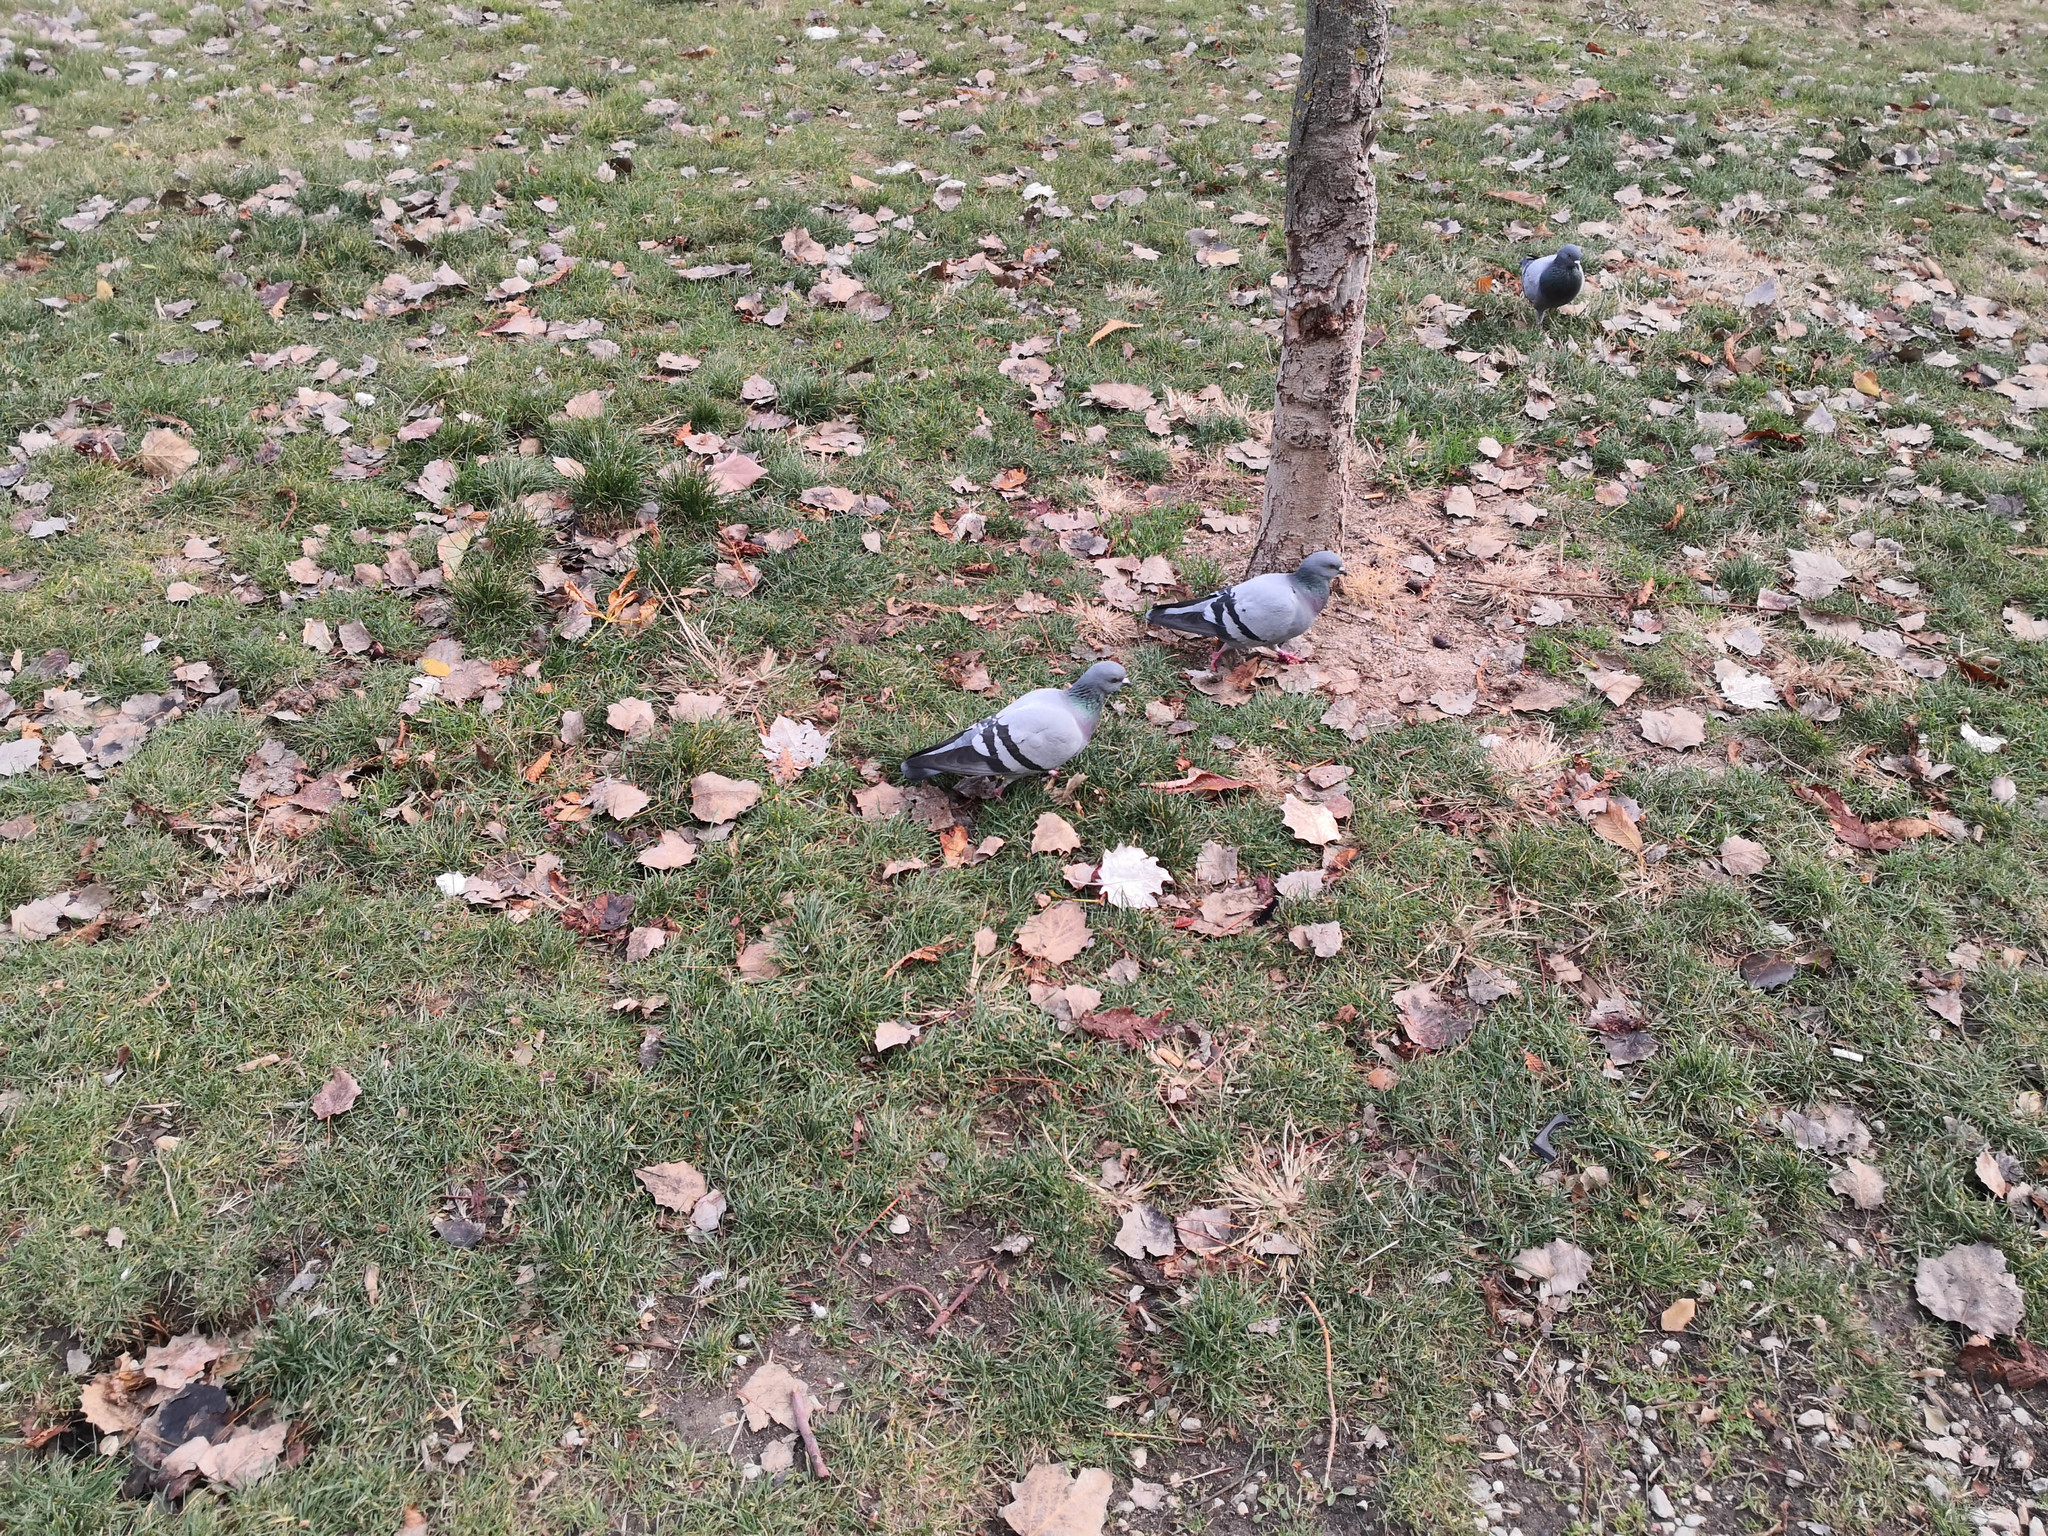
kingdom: Animalia
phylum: Chordata
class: Aves
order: Columbiformes
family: Columbidae
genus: Columba
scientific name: Columba livia
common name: Rock pigeon
